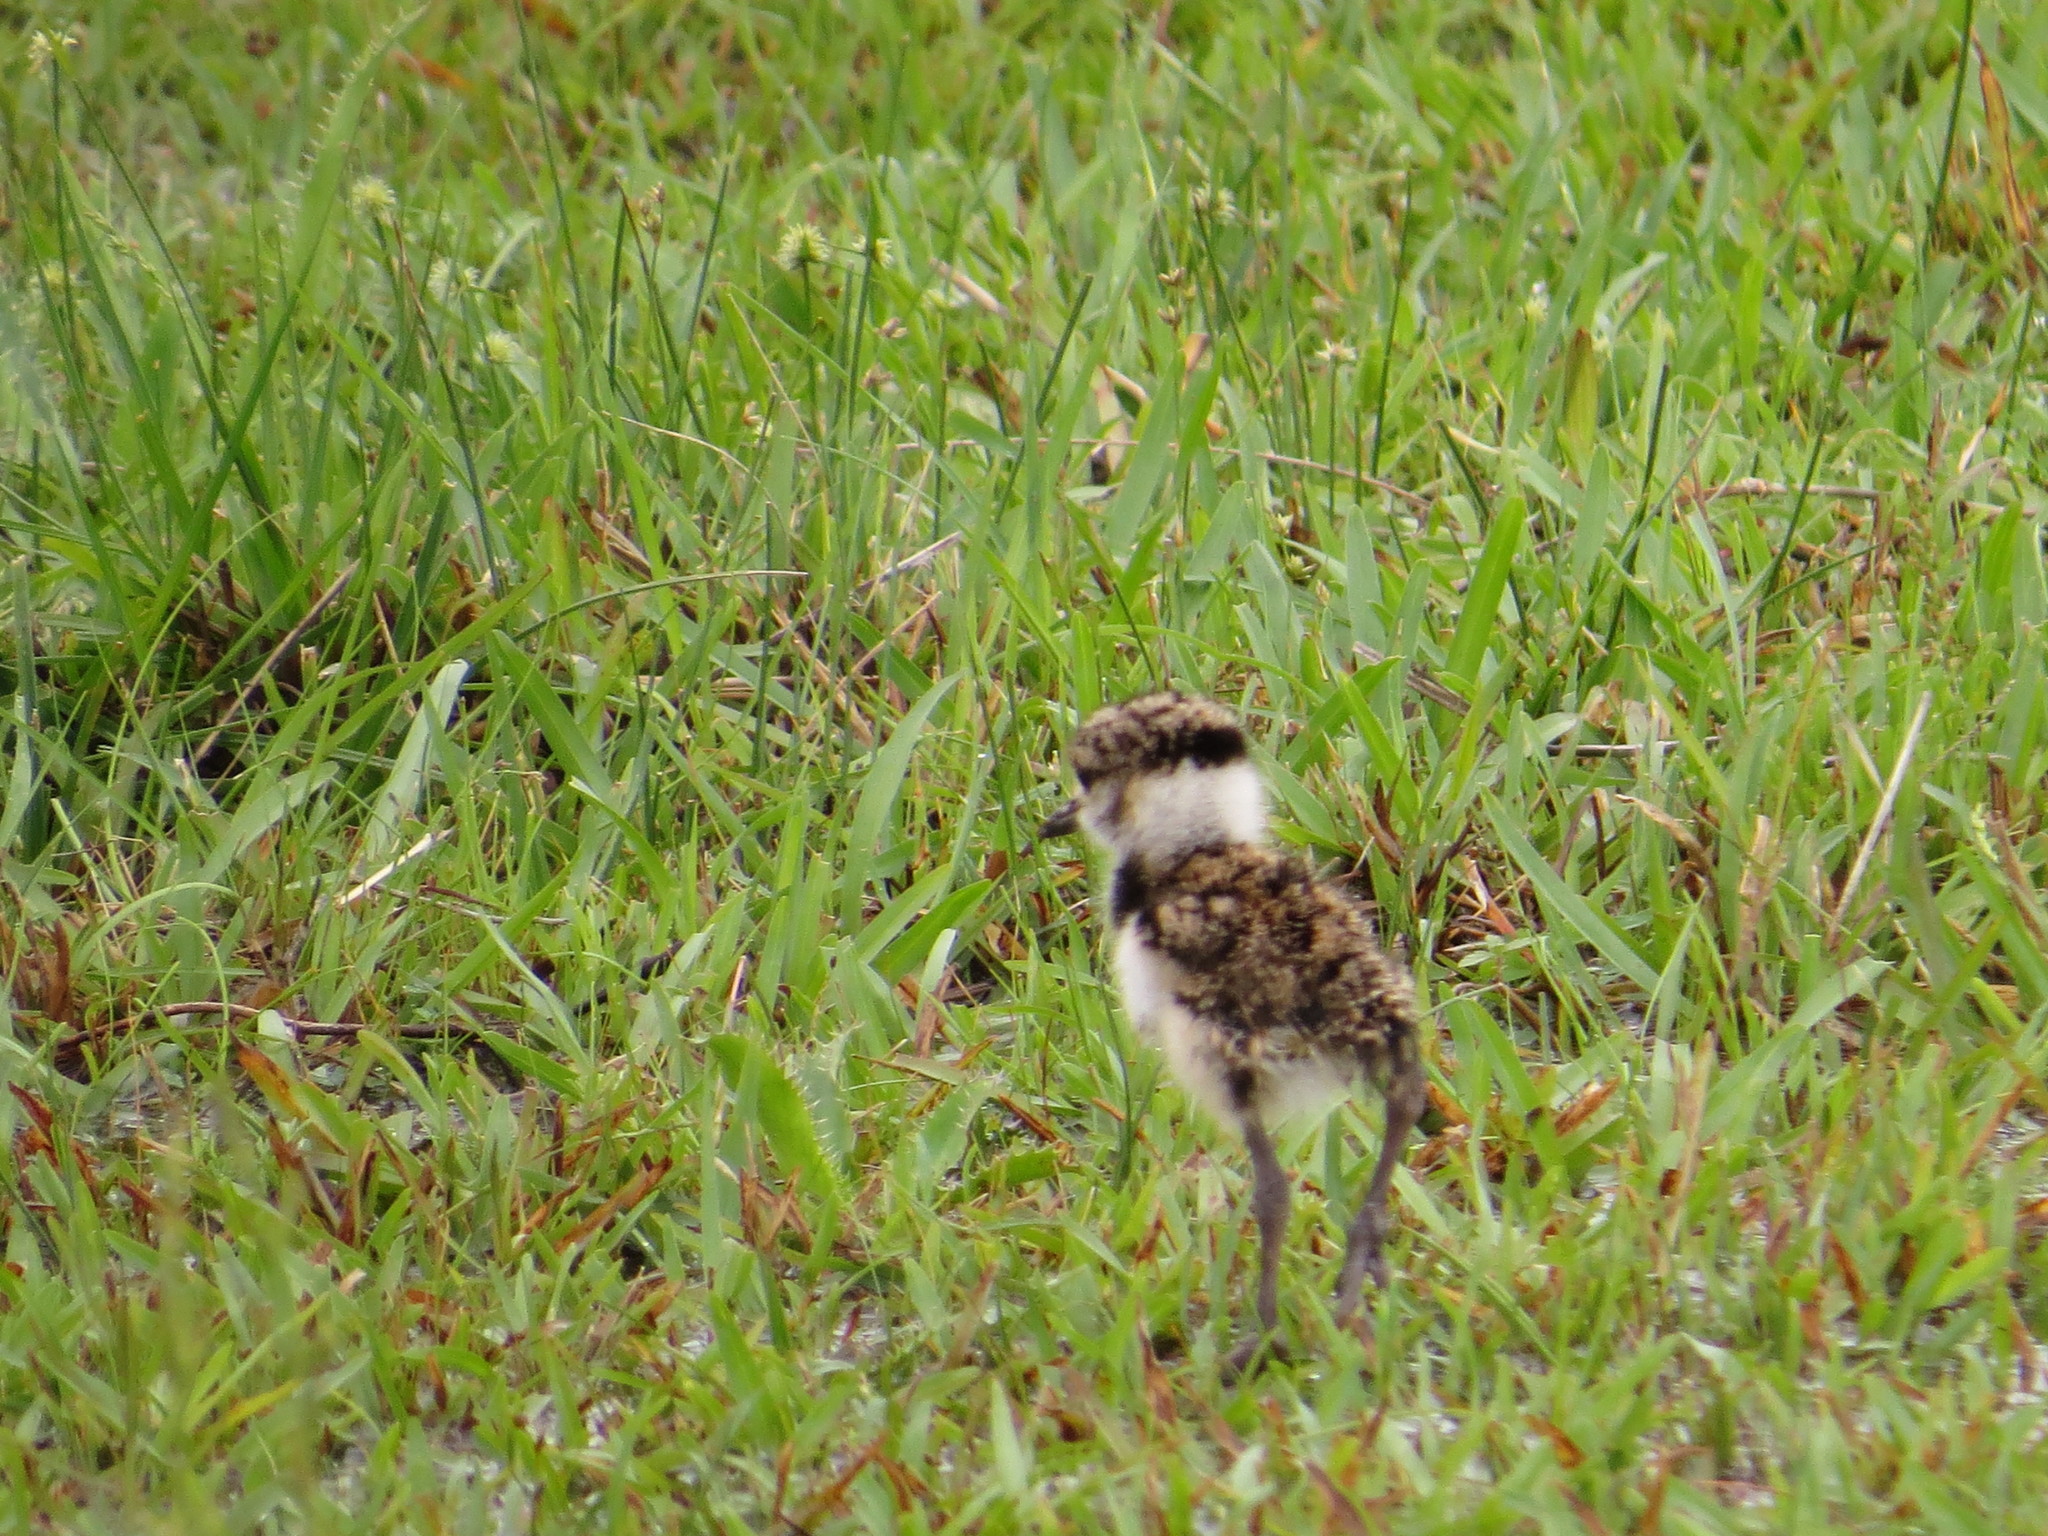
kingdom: Animalia
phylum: Chordata
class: Aves
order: Charadriiformes
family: Charadriidae
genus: Vanellus
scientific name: Vanellus chilensis
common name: Southern lapwing
